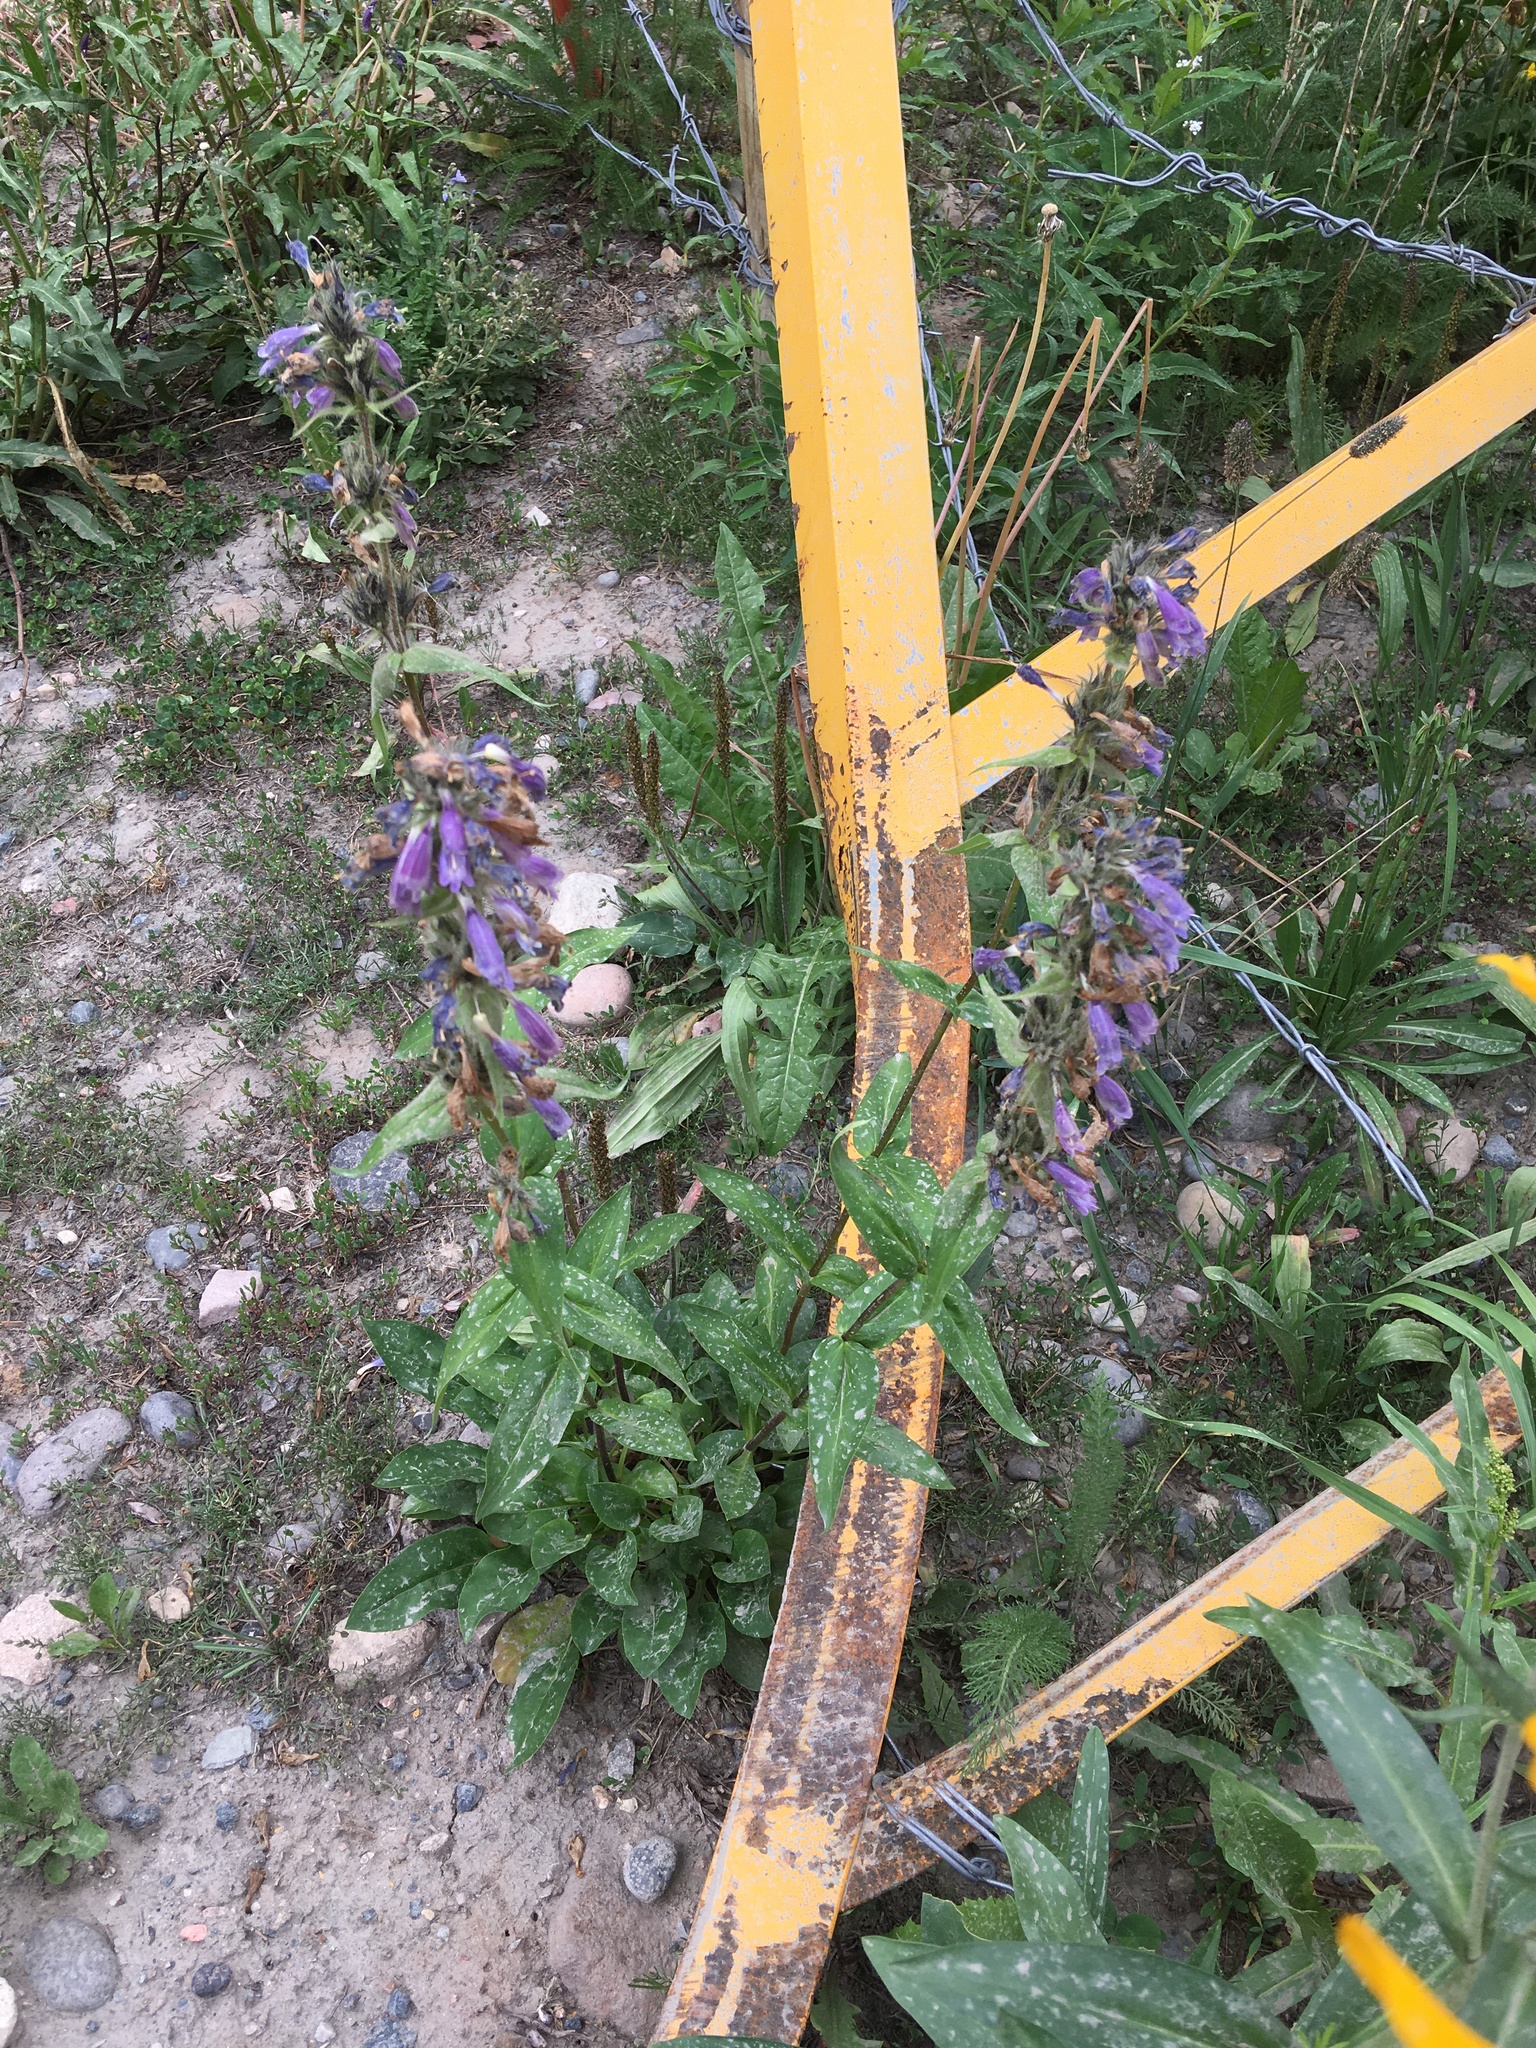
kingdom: Plantae
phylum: Tracheophyta
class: Magnoliopsida
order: Lamiales
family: Plantaginaceae
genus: Penstemon
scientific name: Penstemon whippleanus
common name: Whipple's penstemon
